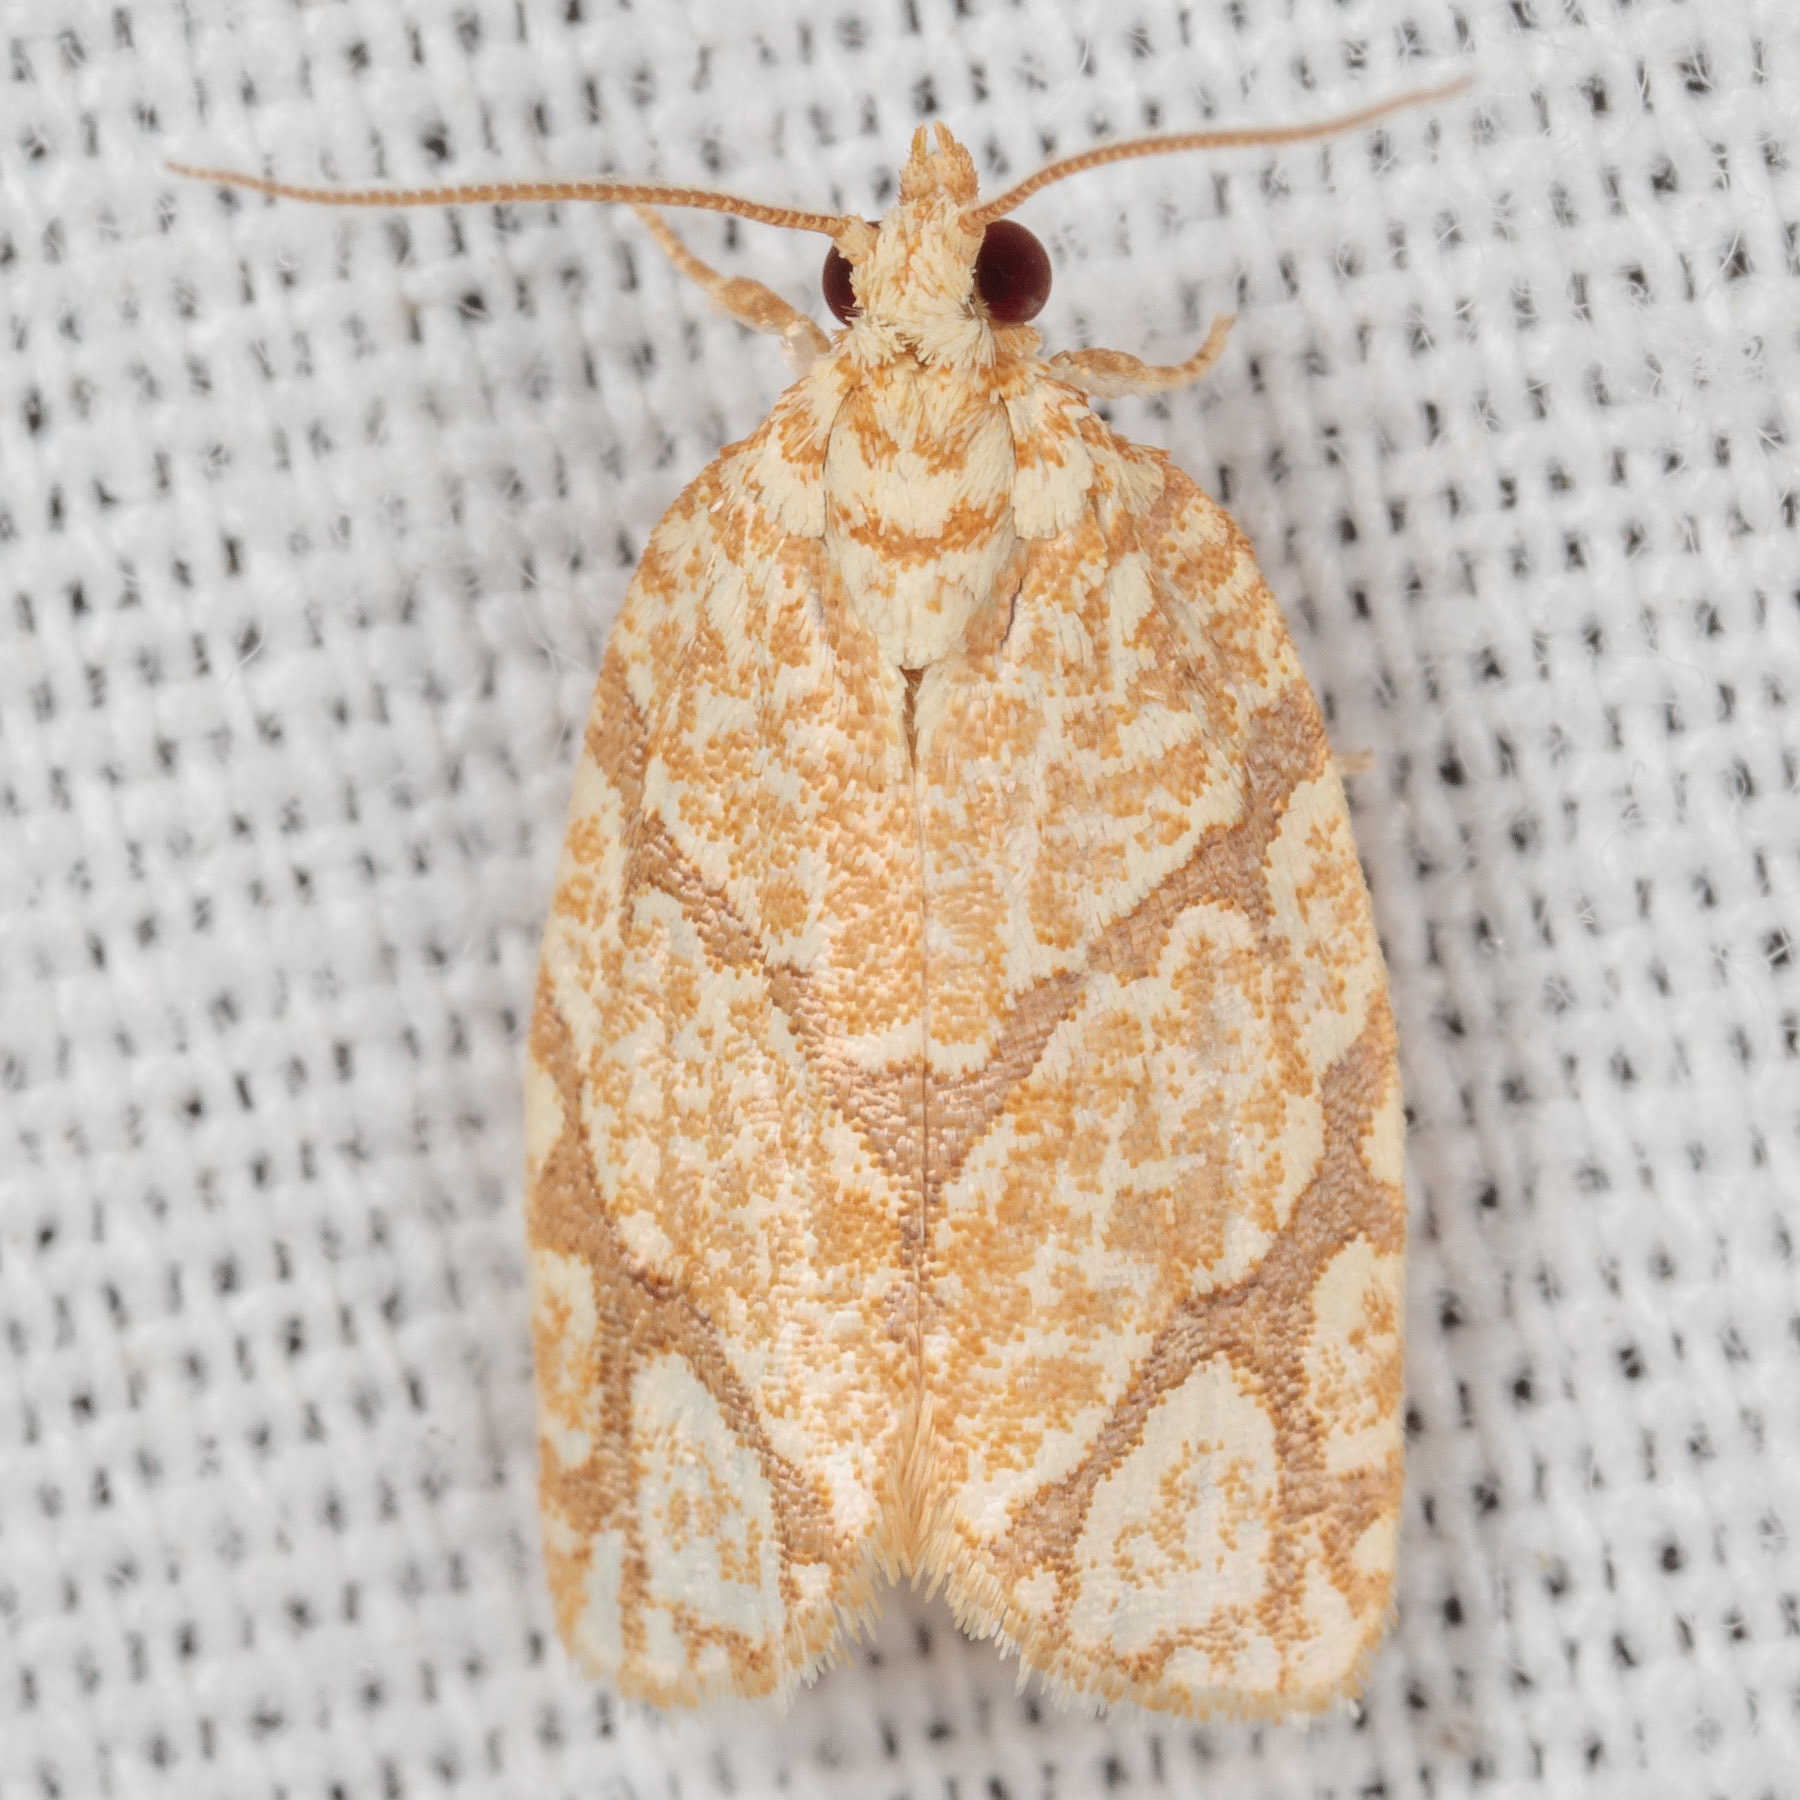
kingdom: Animalia
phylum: Arthropoda
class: Insecta
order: Lepidoptera
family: Tortricidae
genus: Argyrotaenia
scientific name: Argyrotaenia quercifoliana
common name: Yellow-winged oak leafroller moth
